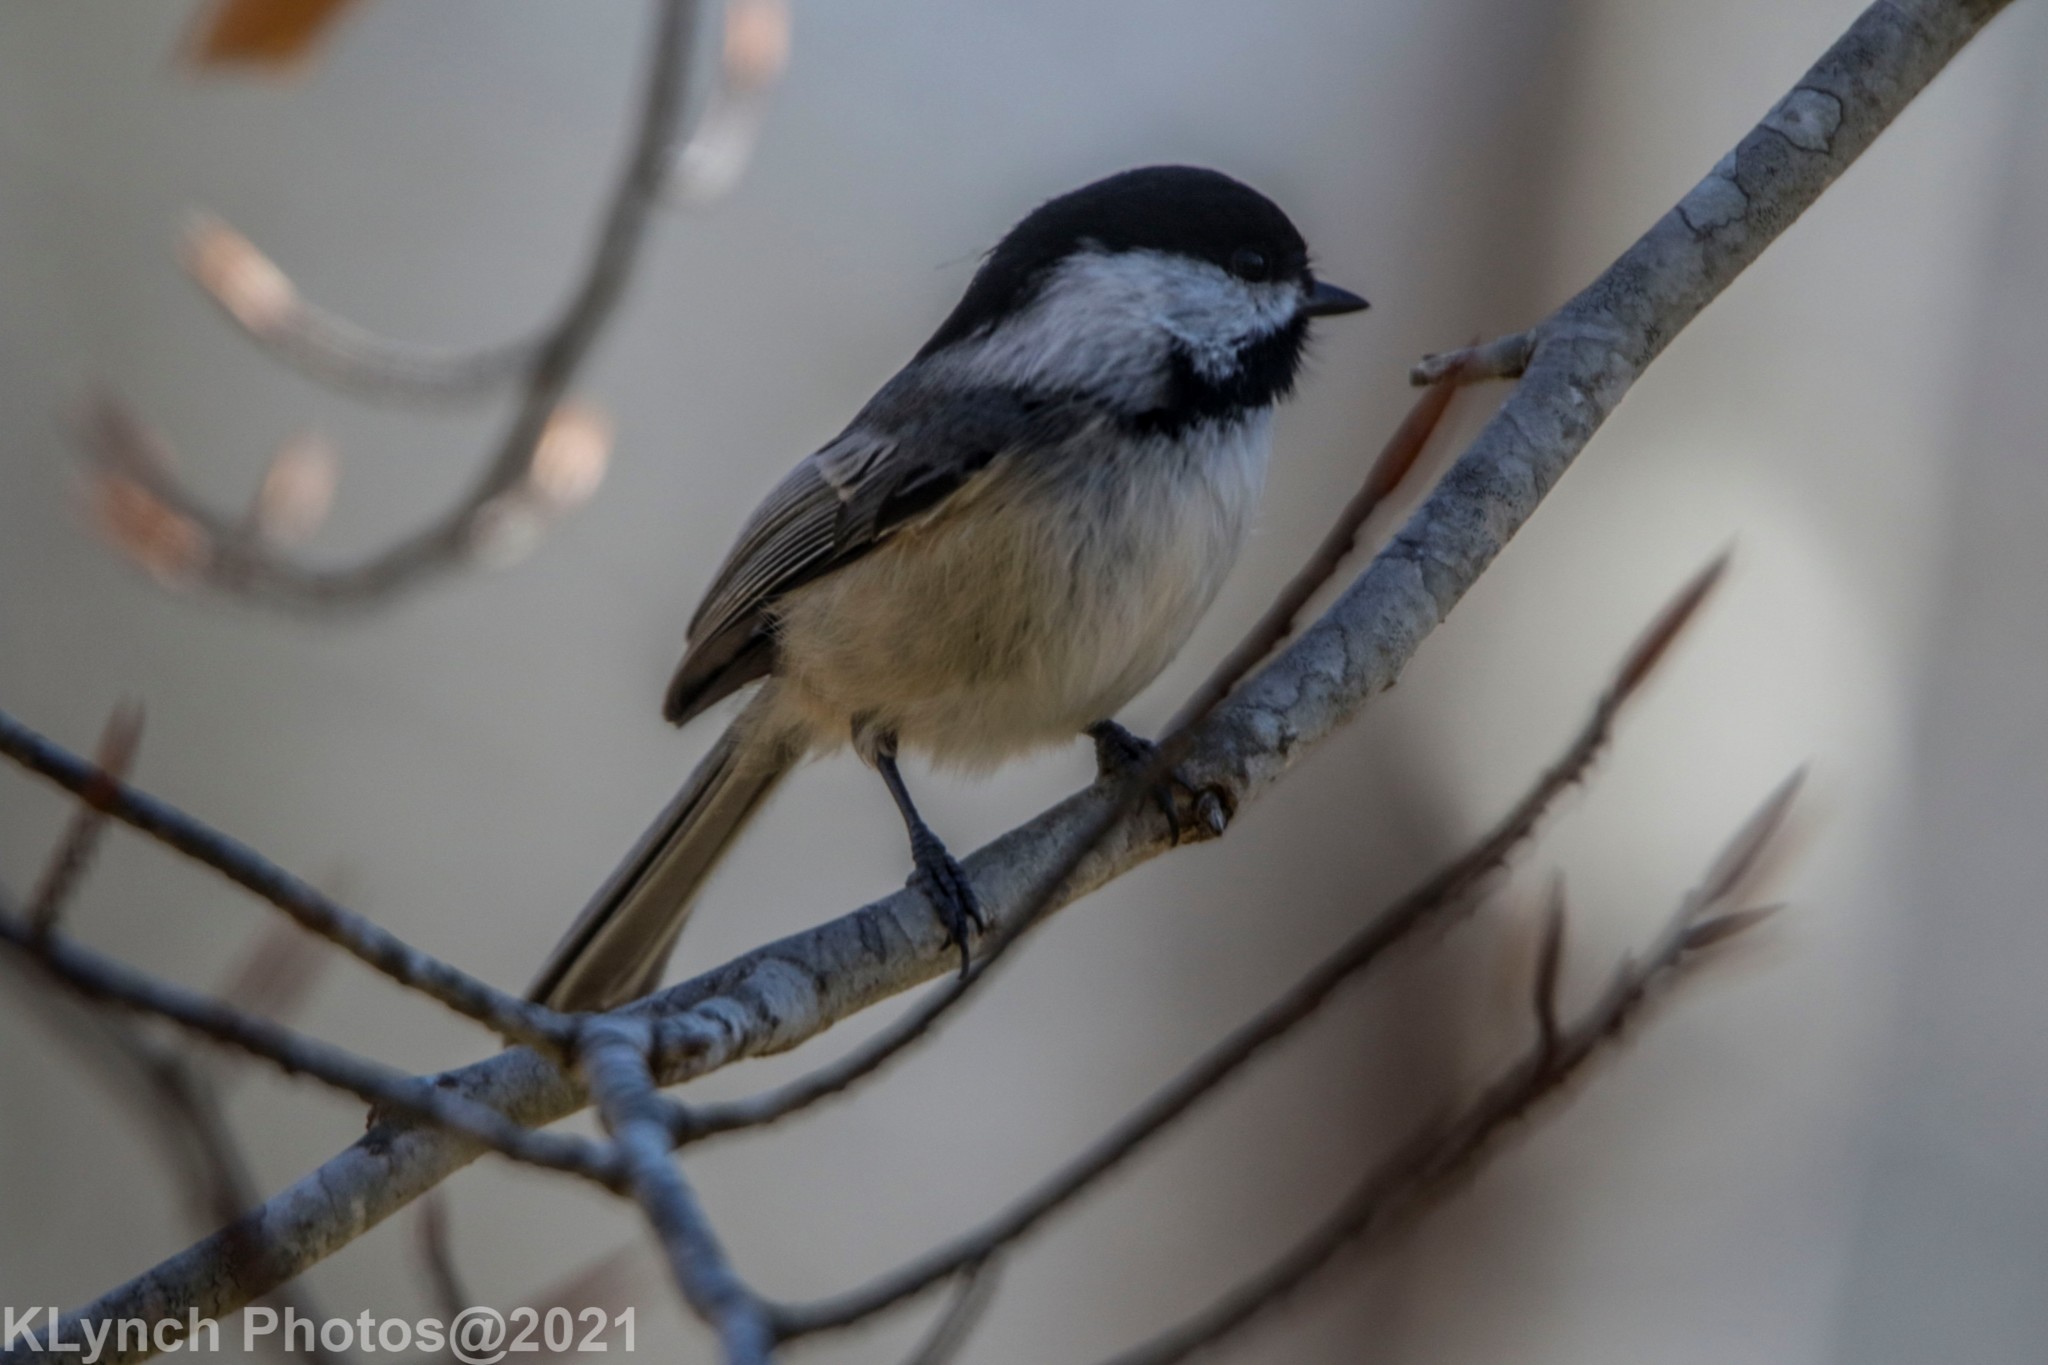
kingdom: Animalia
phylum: Chordata
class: Aves
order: Passeriformes
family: Paridae
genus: Poecile
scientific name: Poecile atricapillus
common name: Black-capped chickadee
